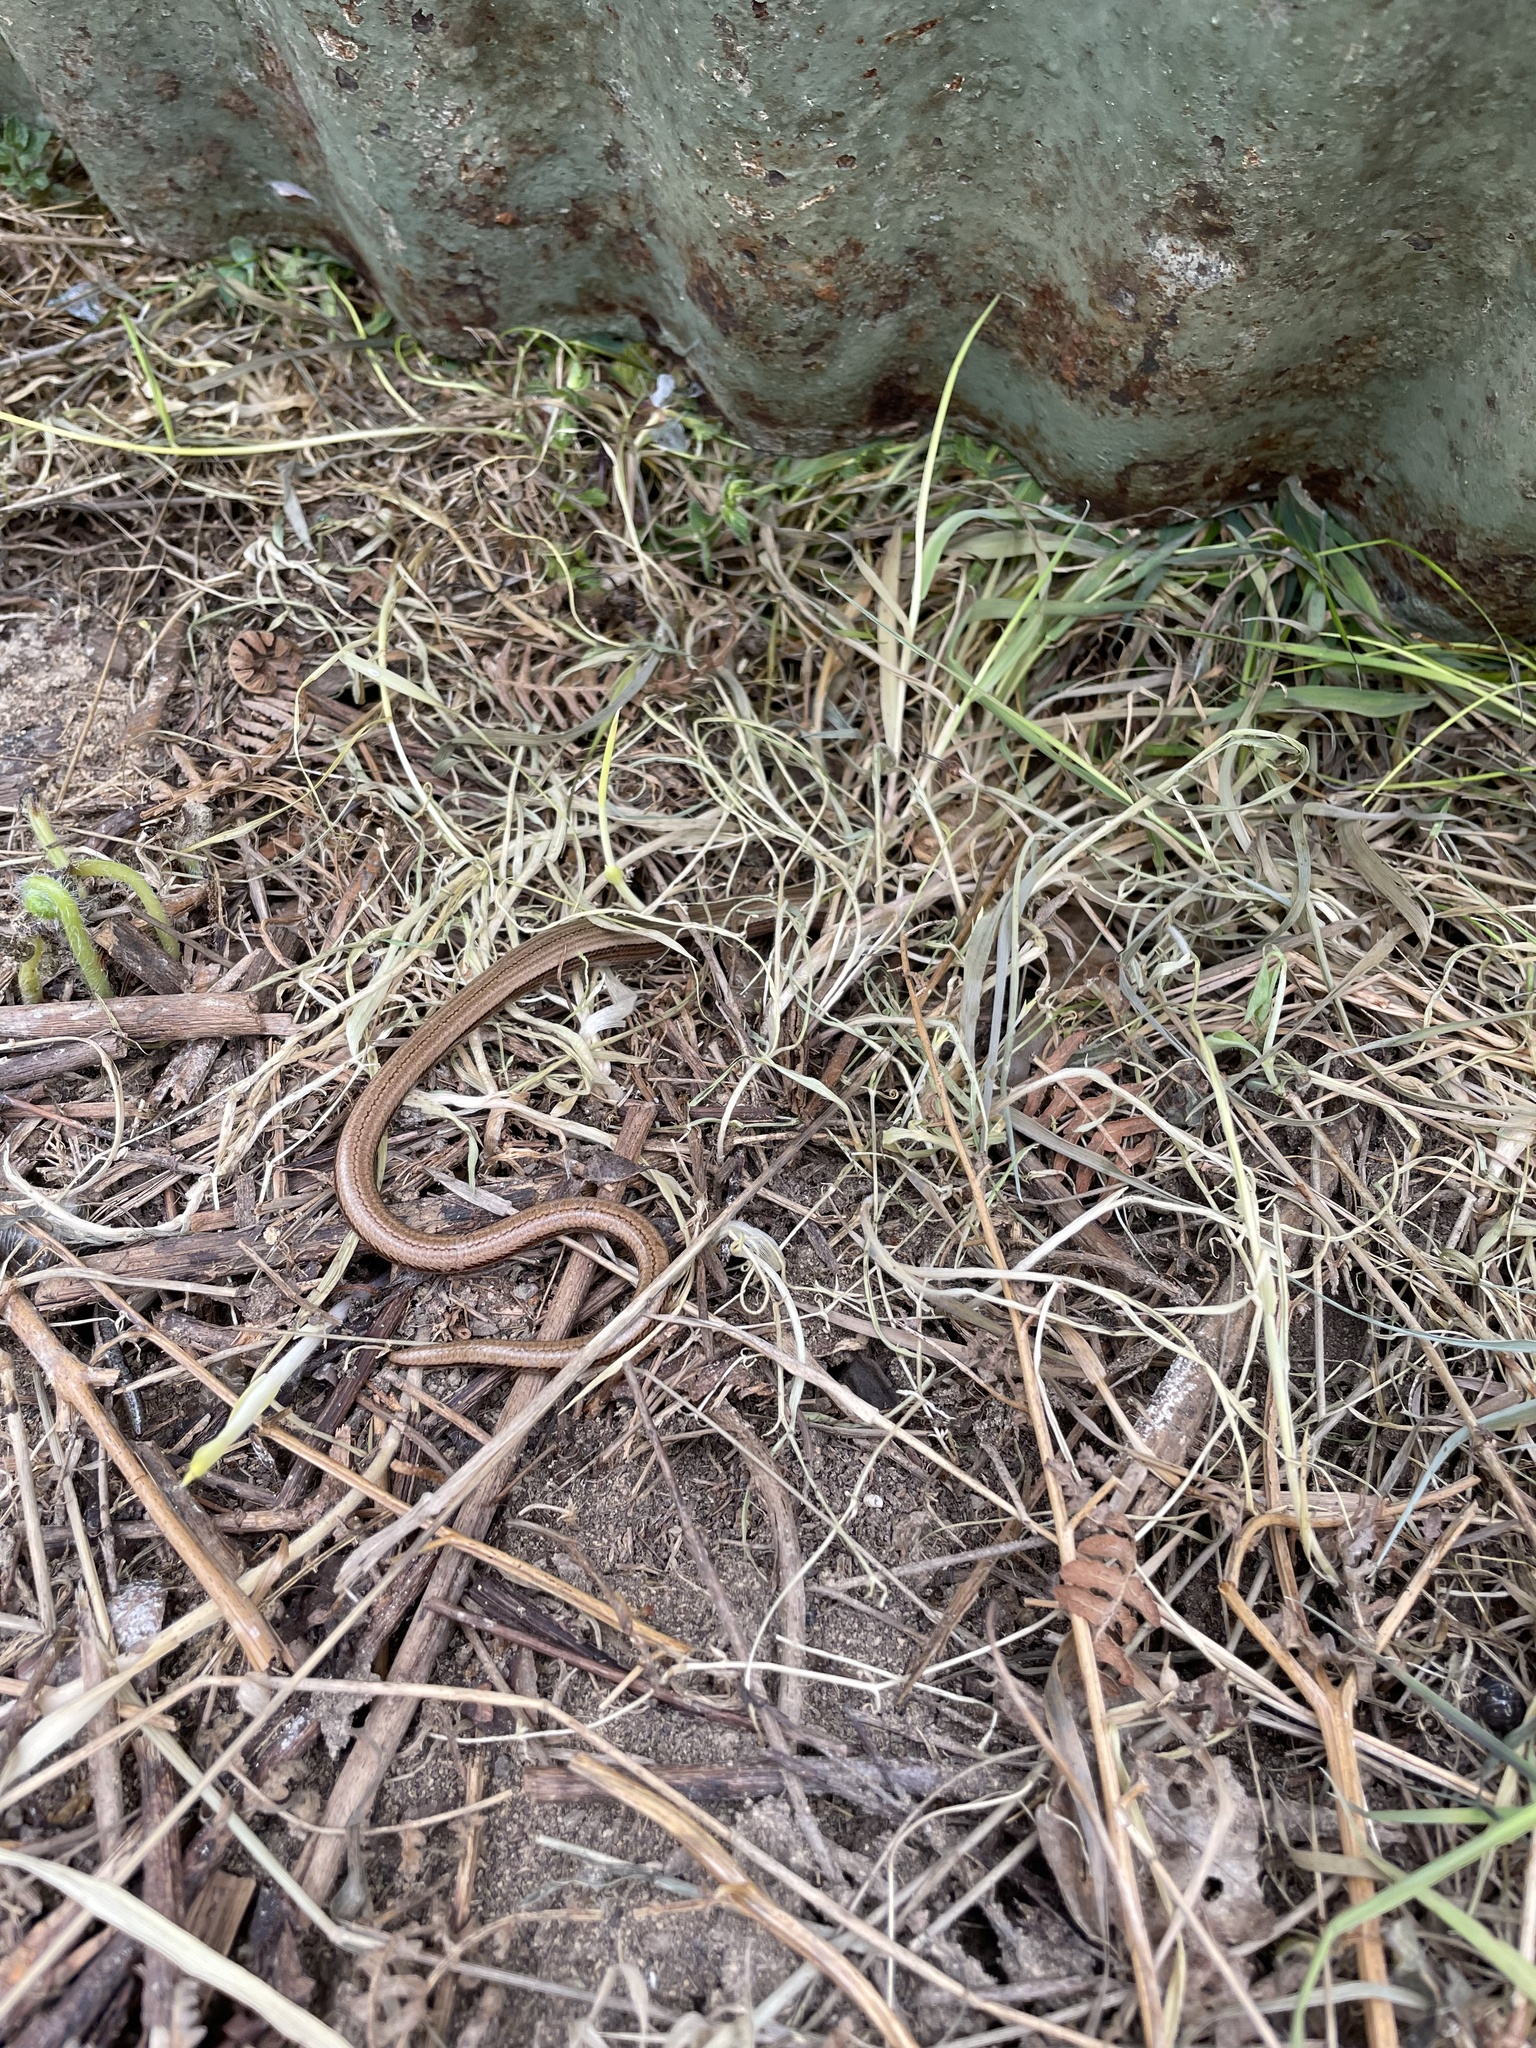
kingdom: Animalia
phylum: Chordata
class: Squamata
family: Anguidae
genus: Anguis
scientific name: Anguis fragilis
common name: Slow worm
